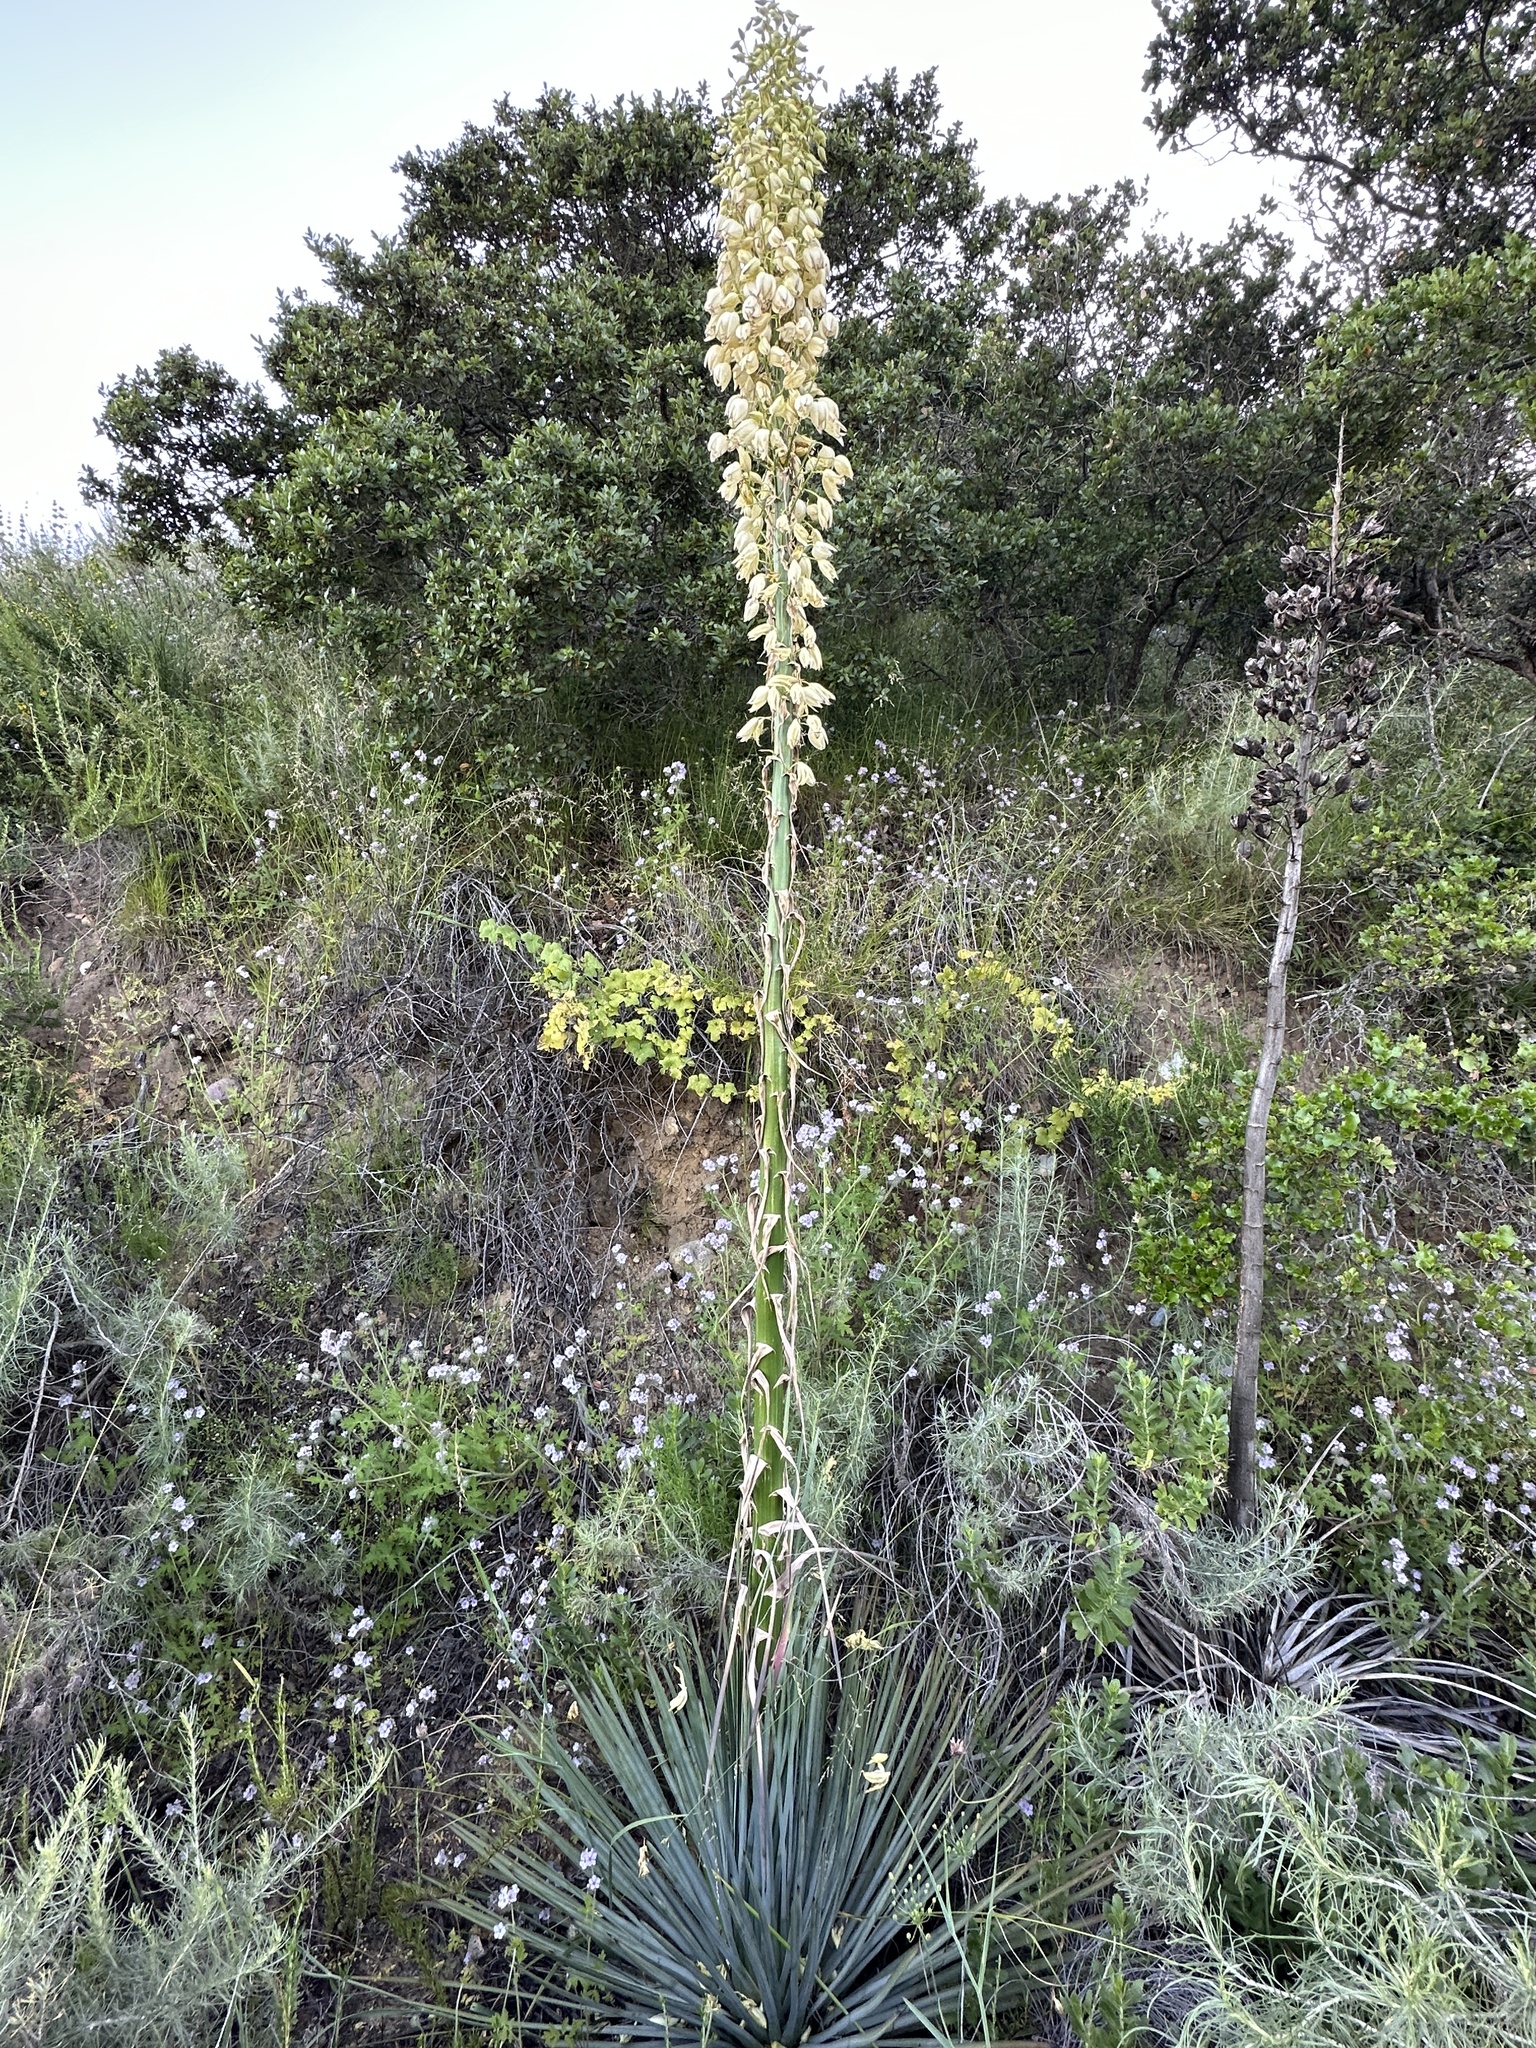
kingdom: Plantae
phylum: Tracheophyta
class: Liliopsida
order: Asparagales
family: Asparagaceae
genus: Hesperoyucca
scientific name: Hesperoyucca whipplei
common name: Our lord's-candle
